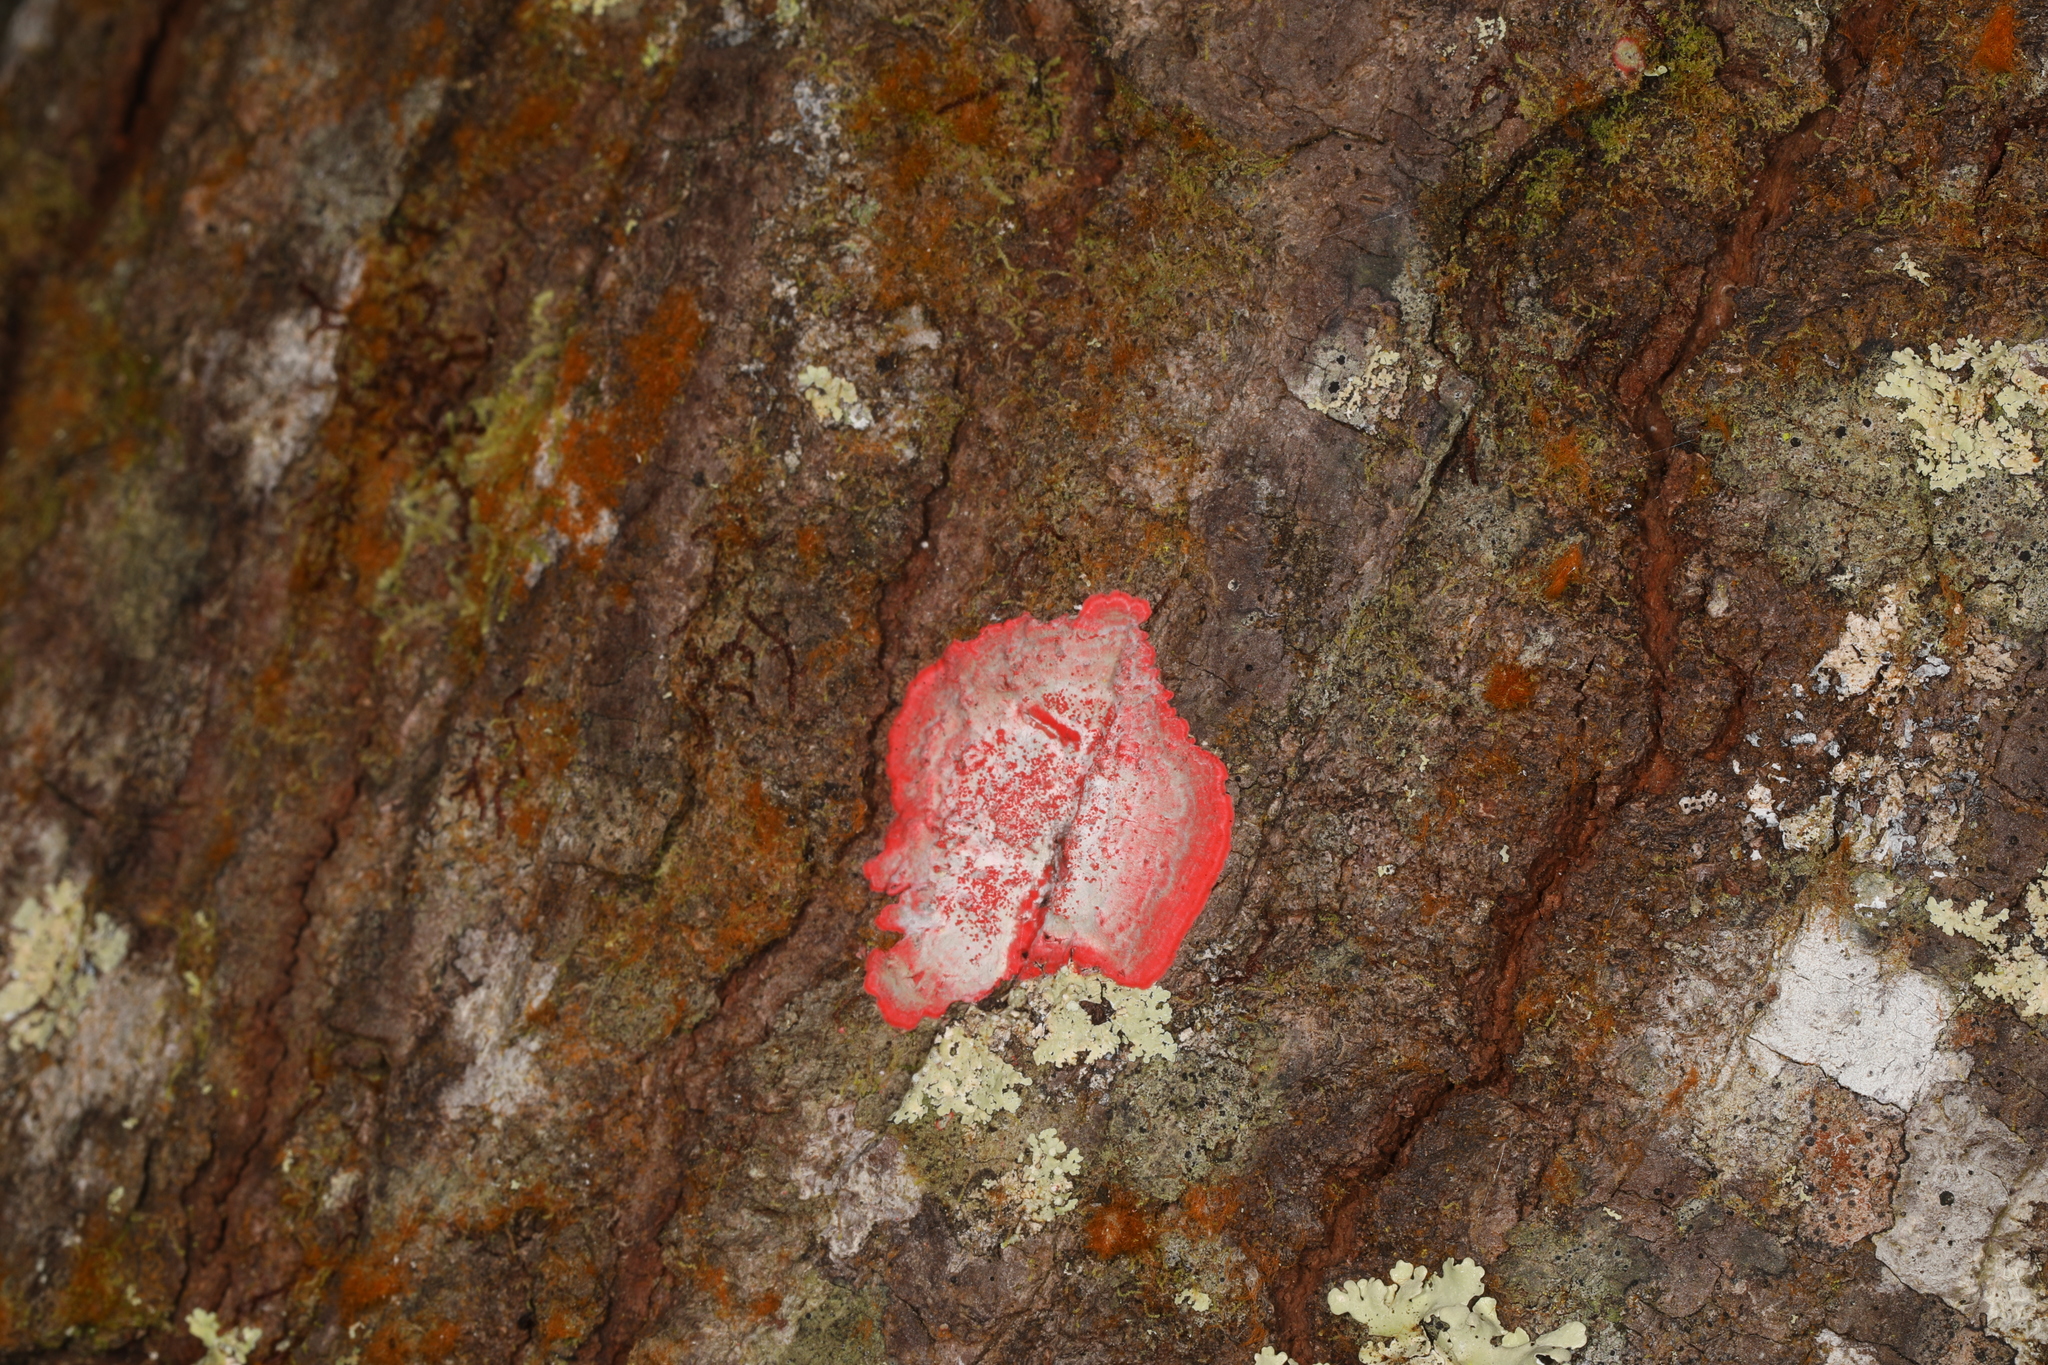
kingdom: Fungi
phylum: Ascomycota
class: Arthoniomycetes
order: Arthoniales
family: Arthoniaceae
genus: Herpothallon
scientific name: Herpothallon rubrocinctum
